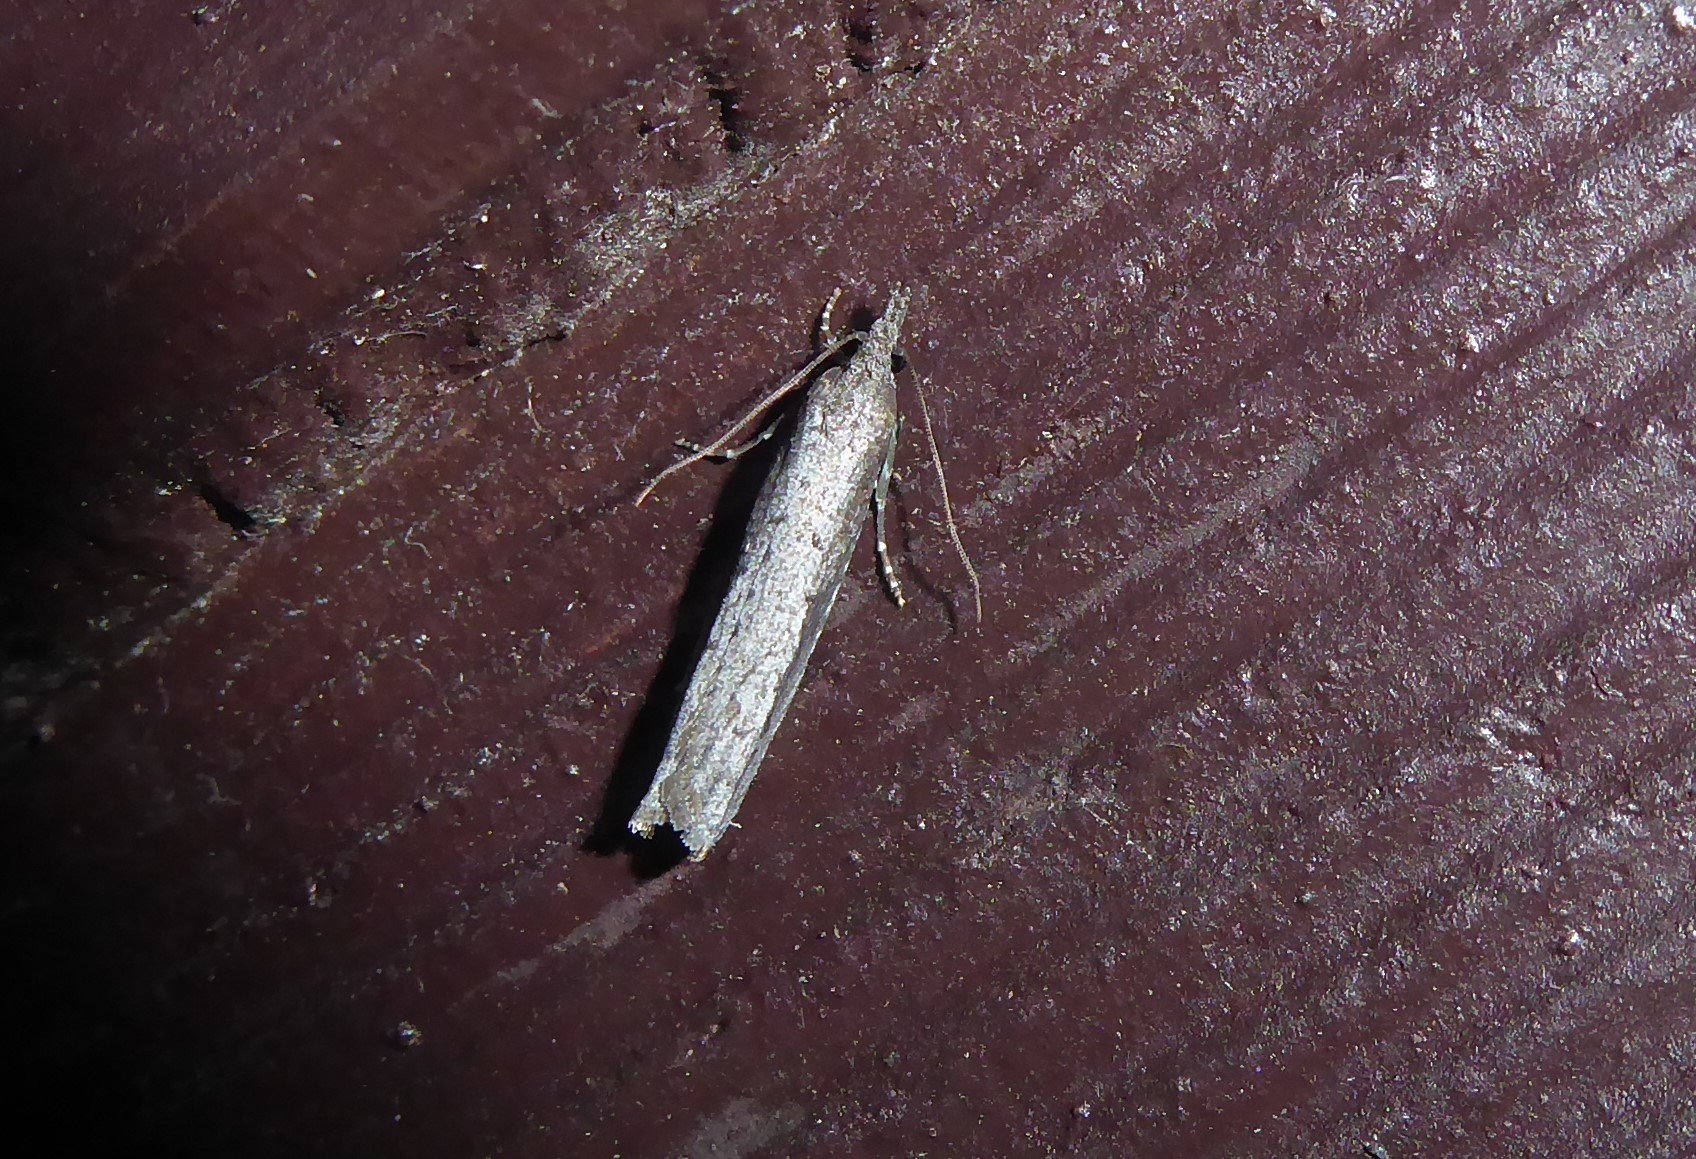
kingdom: Animalia
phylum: Arthropoda
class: Insecta
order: Lepidoptera
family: Tortricidae
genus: Bactra
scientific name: Bactra noteraula
